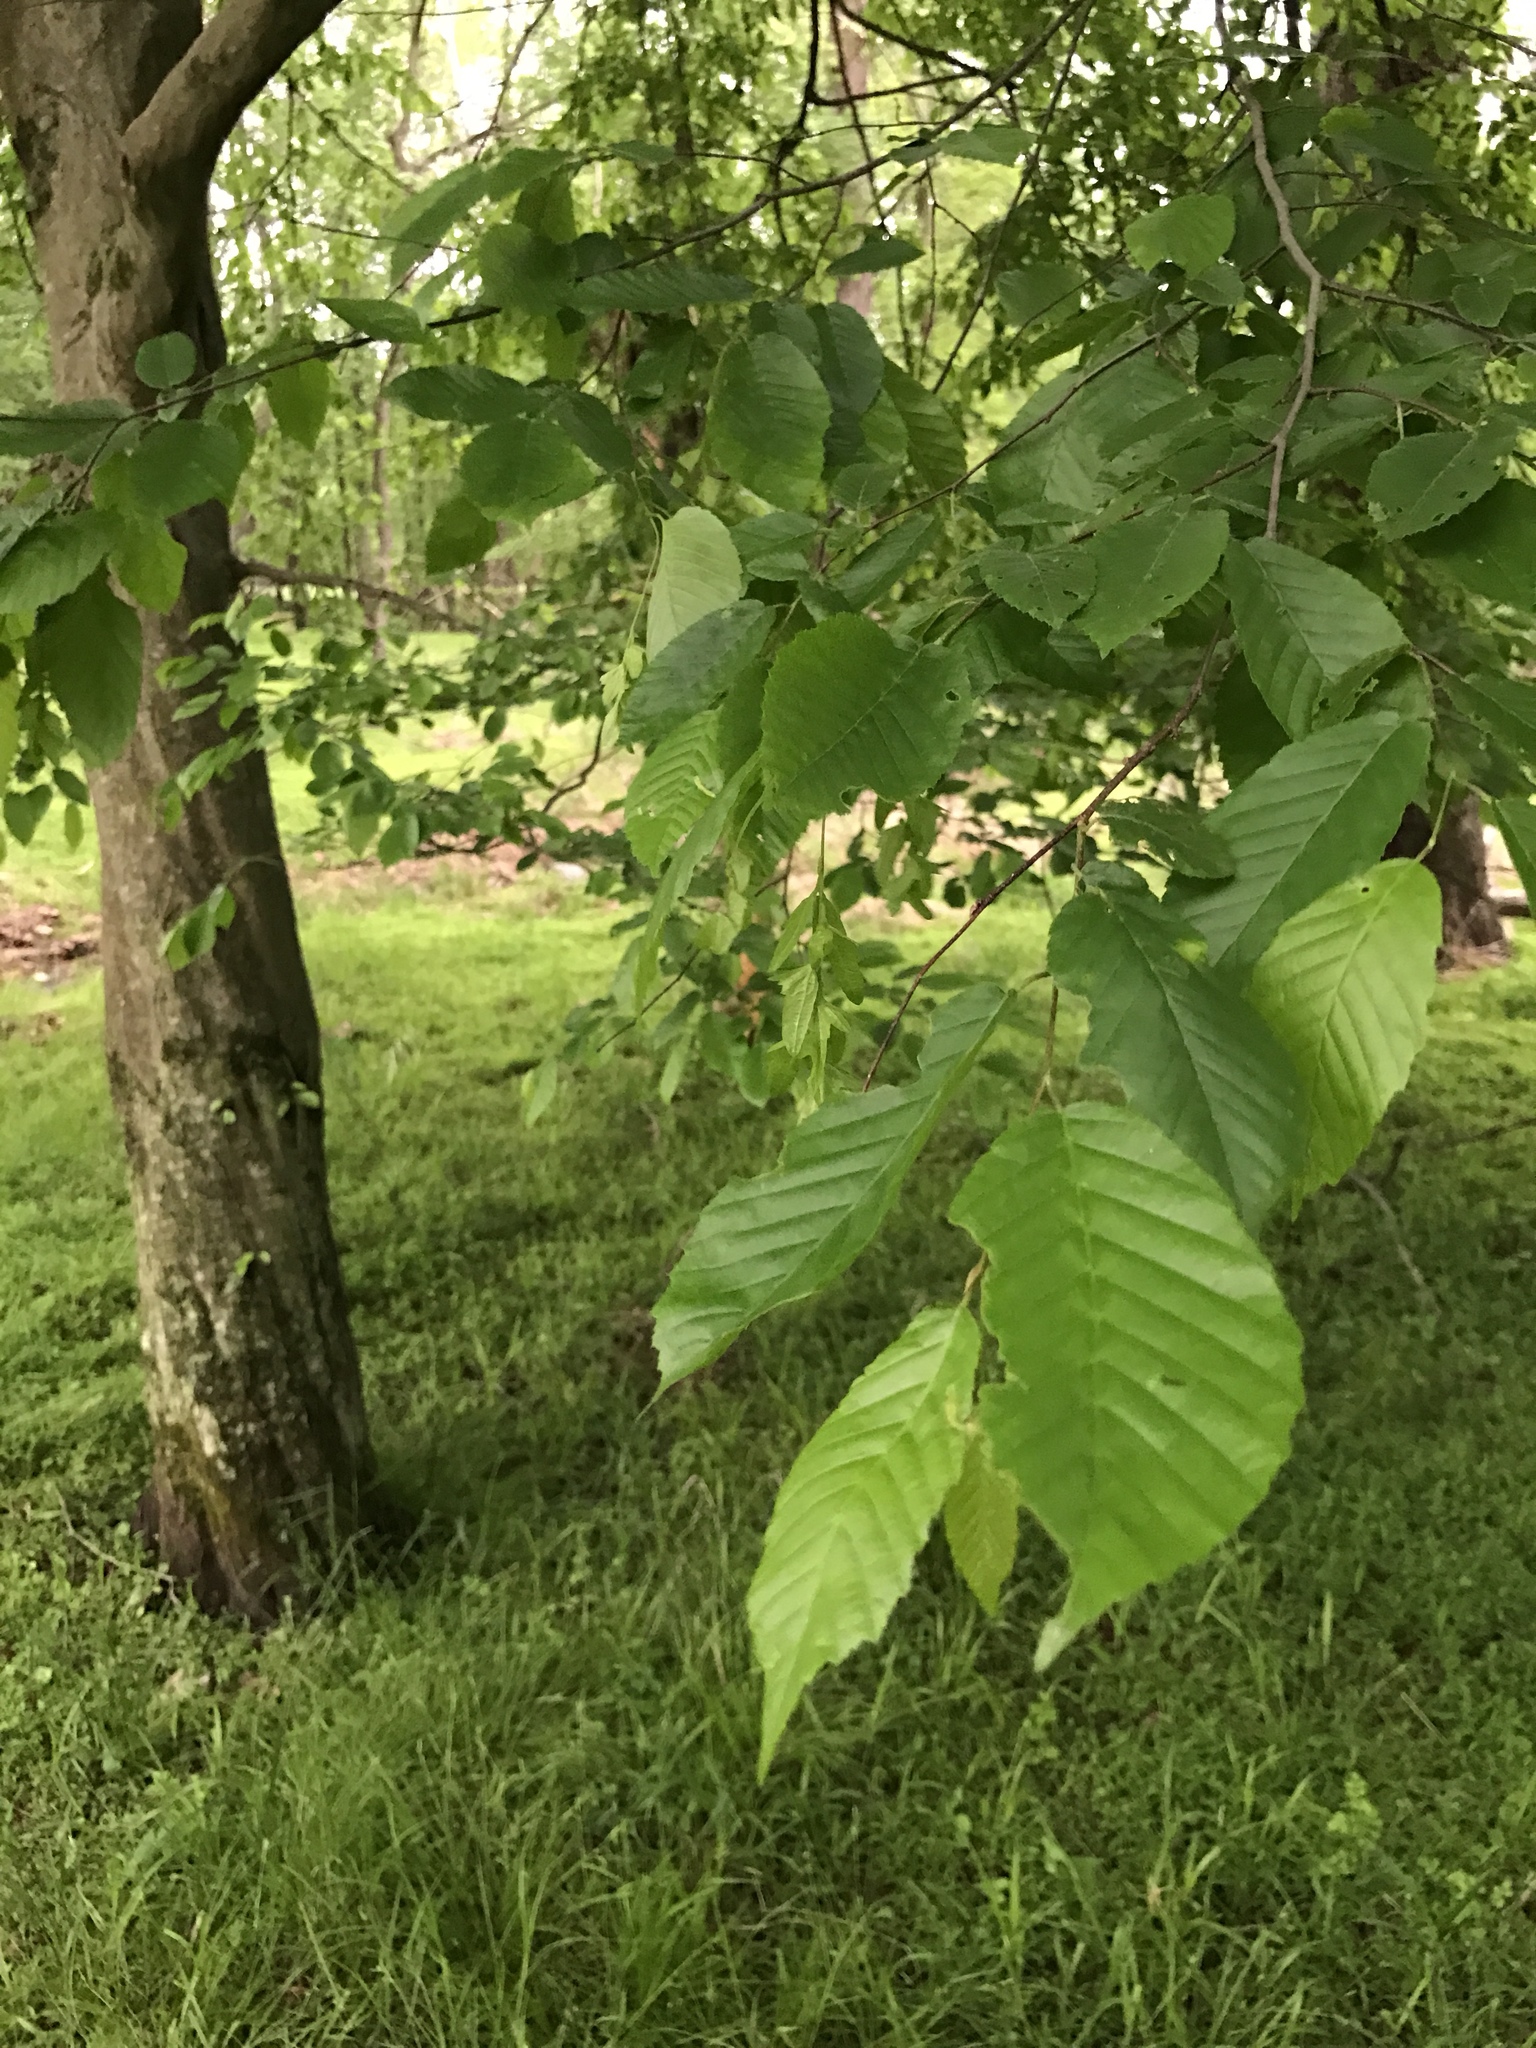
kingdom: Plantae
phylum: Tracheophyta
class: Magnoliopsida
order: Fagales
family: Betulaceae
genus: Carpinus
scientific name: Carpinus caroliniana
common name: American hornbeam
